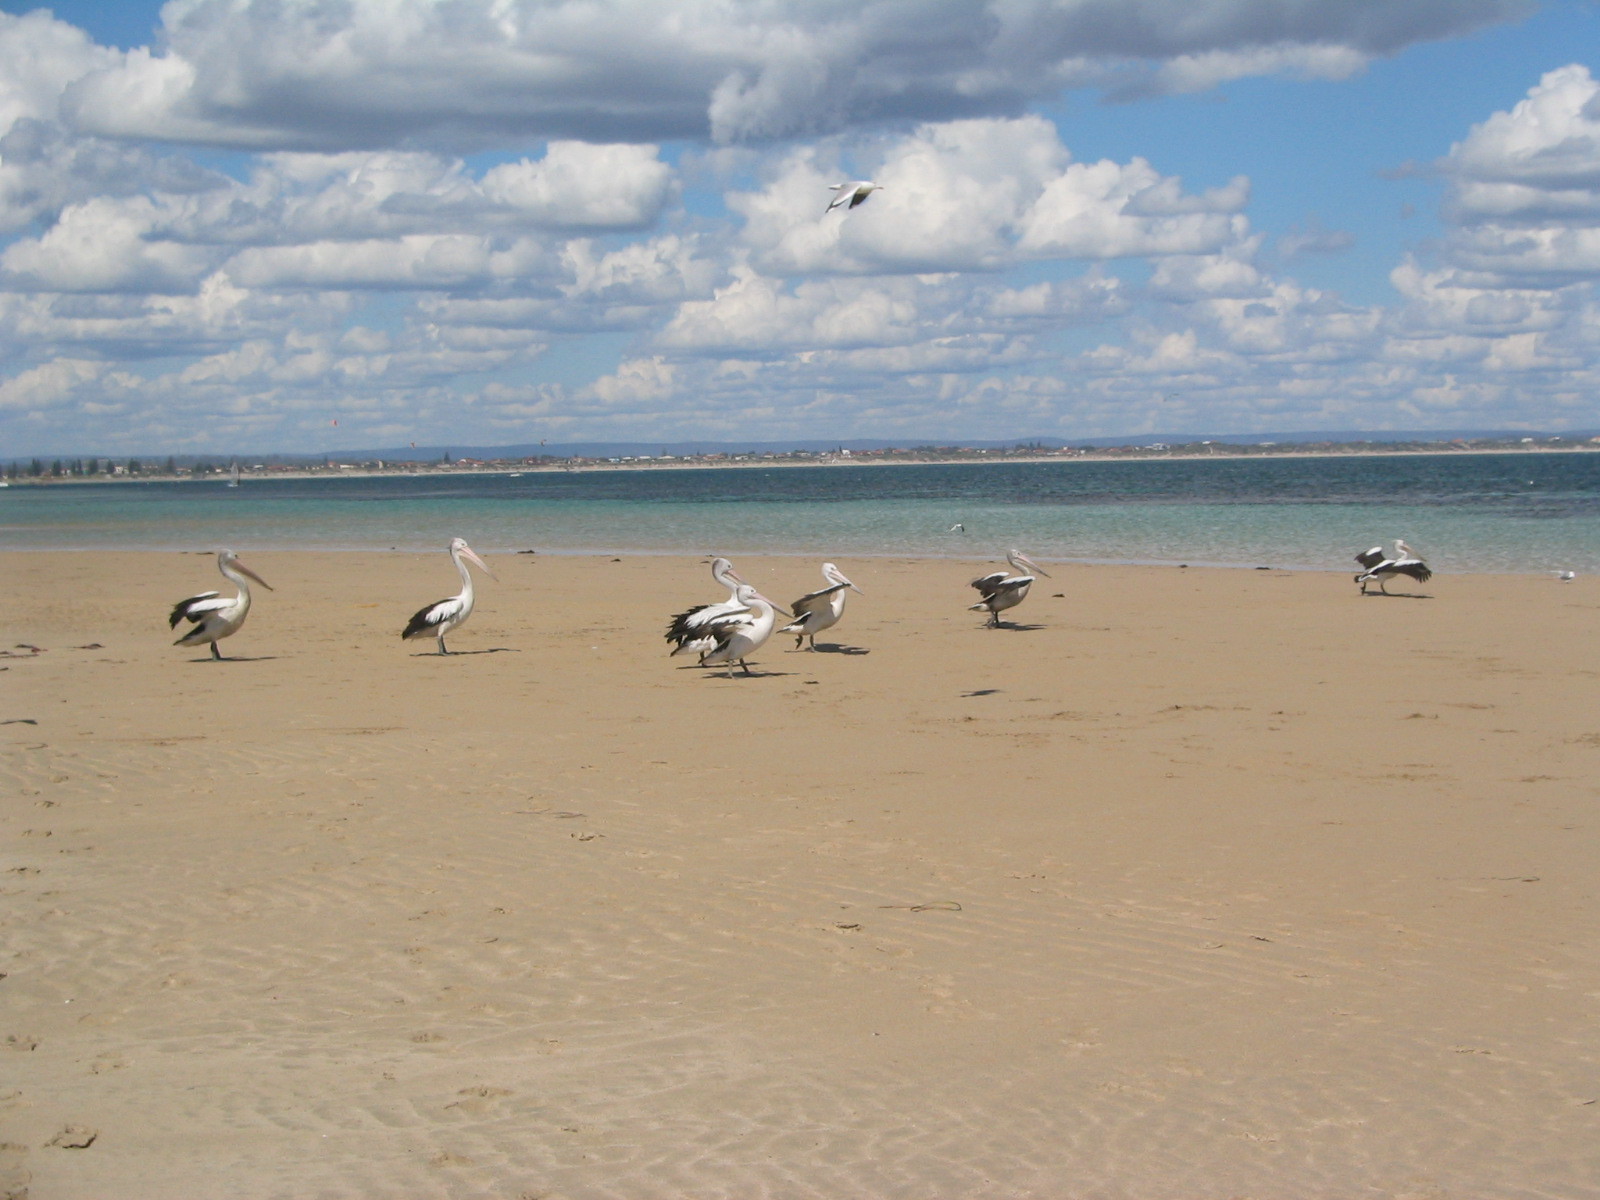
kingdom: Animalia
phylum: Chordata
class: Aves
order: Pelecaniformes
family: Pelecanidae
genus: Pelecanus
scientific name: Pelecanus conspicillatus
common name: Australian pelican
